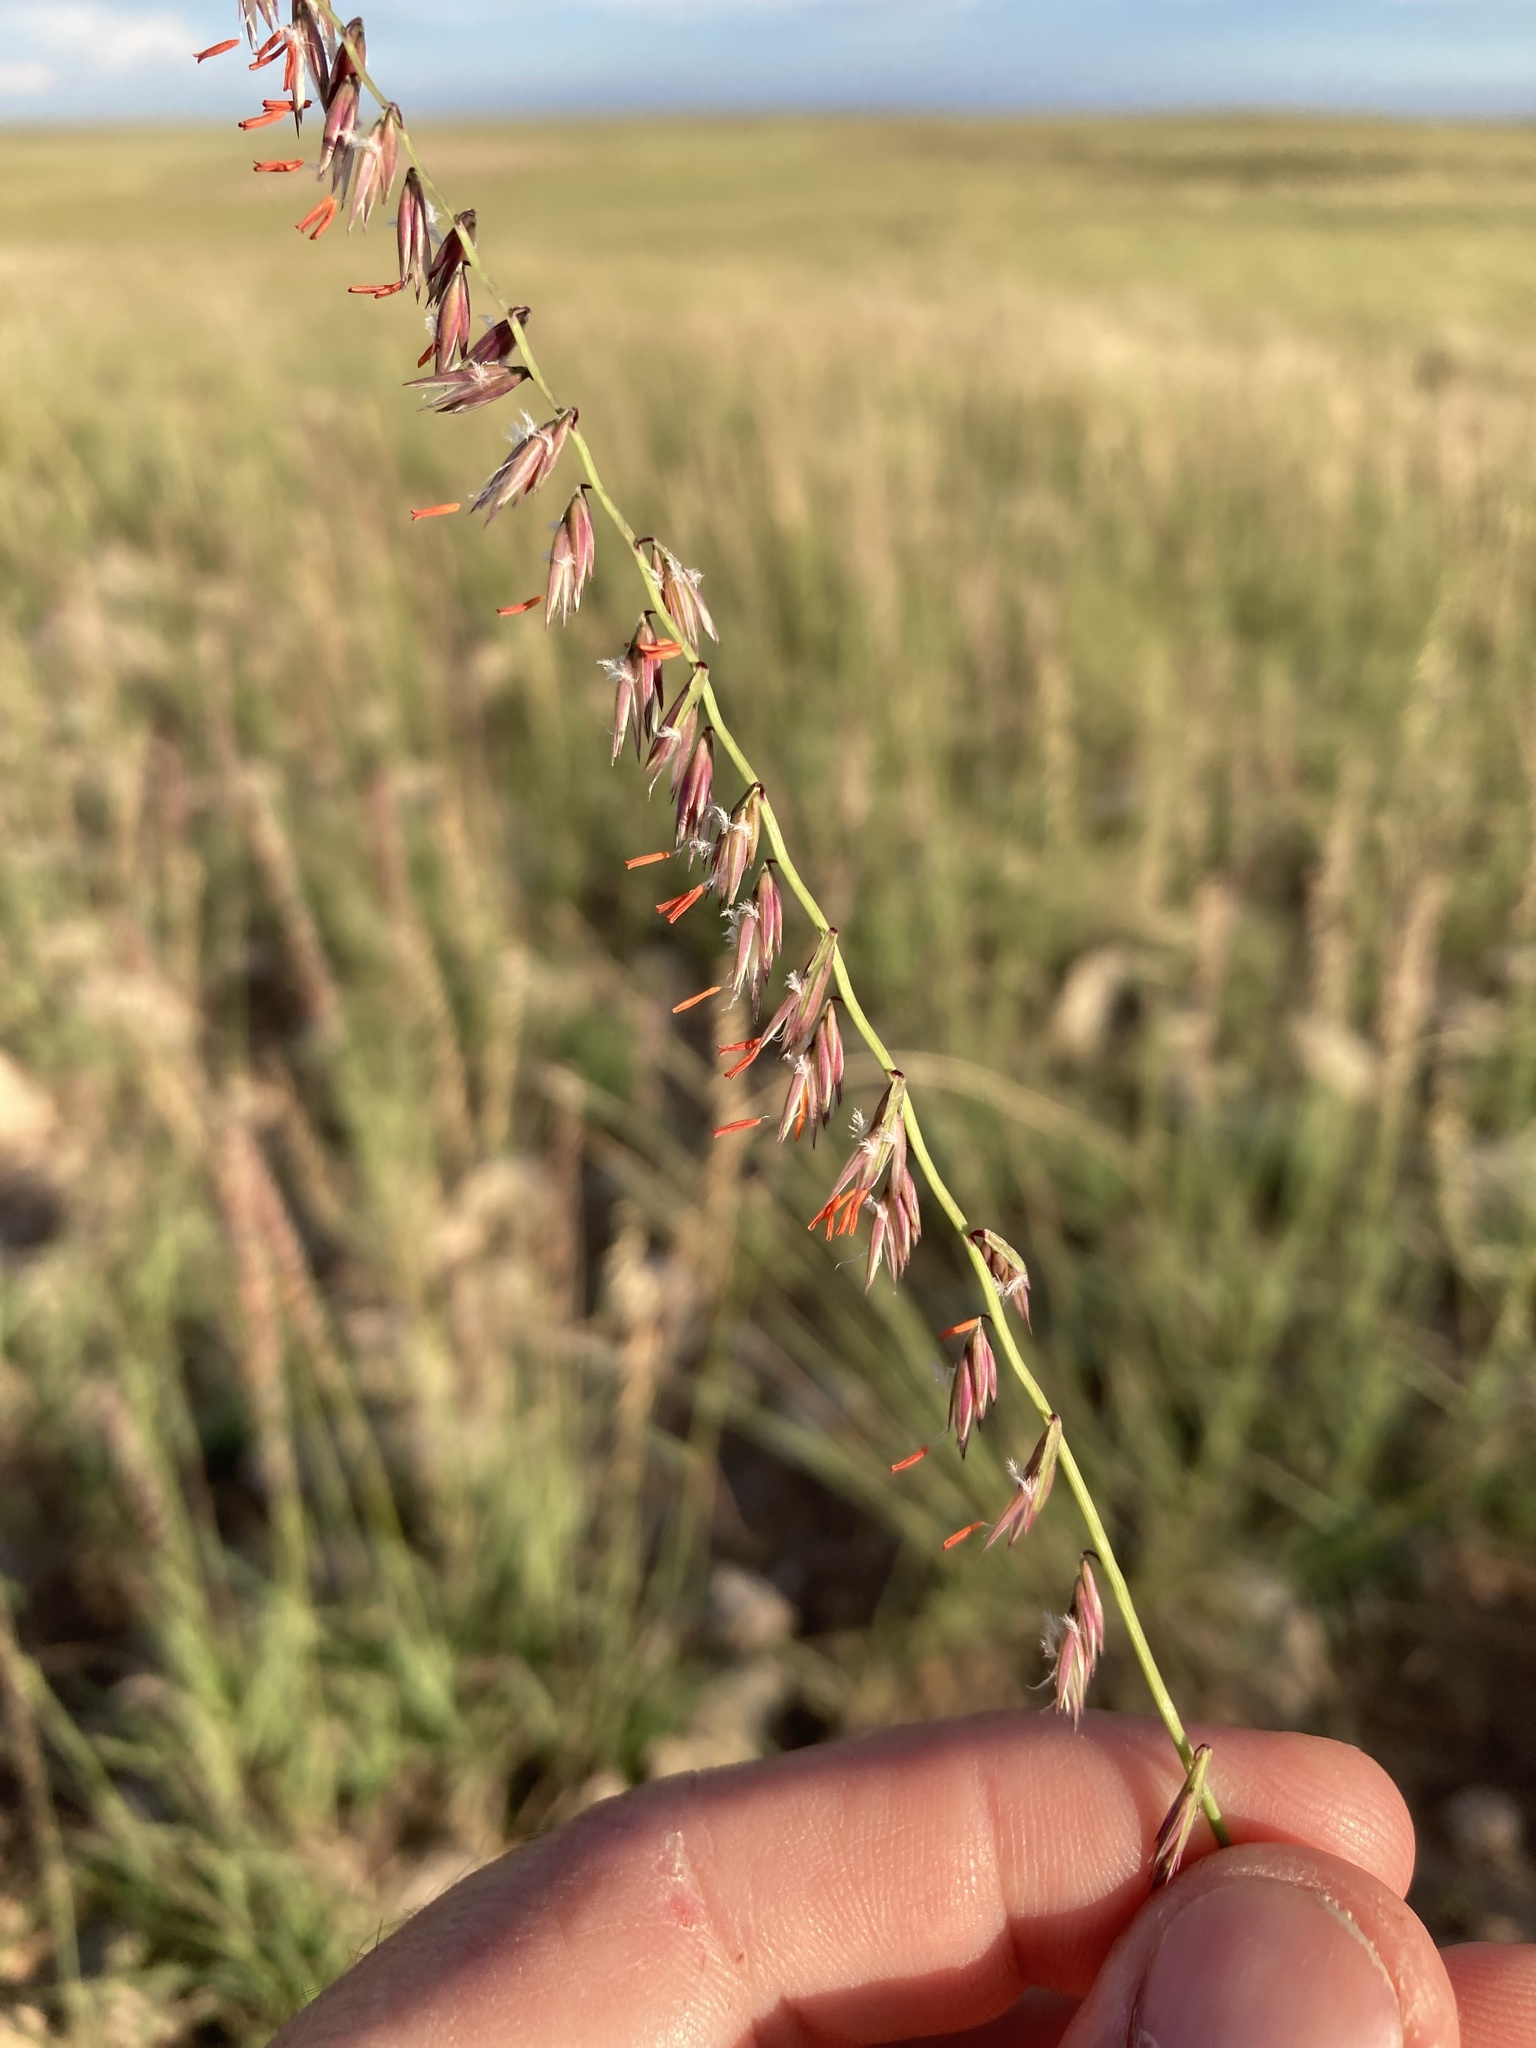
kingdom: Plantae
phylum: Tracheophyta
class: Liliopsida
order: Poales
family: Poaceae
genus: Bouteloua
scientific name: Bouteloua curtipendula
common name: Side-oats grama
